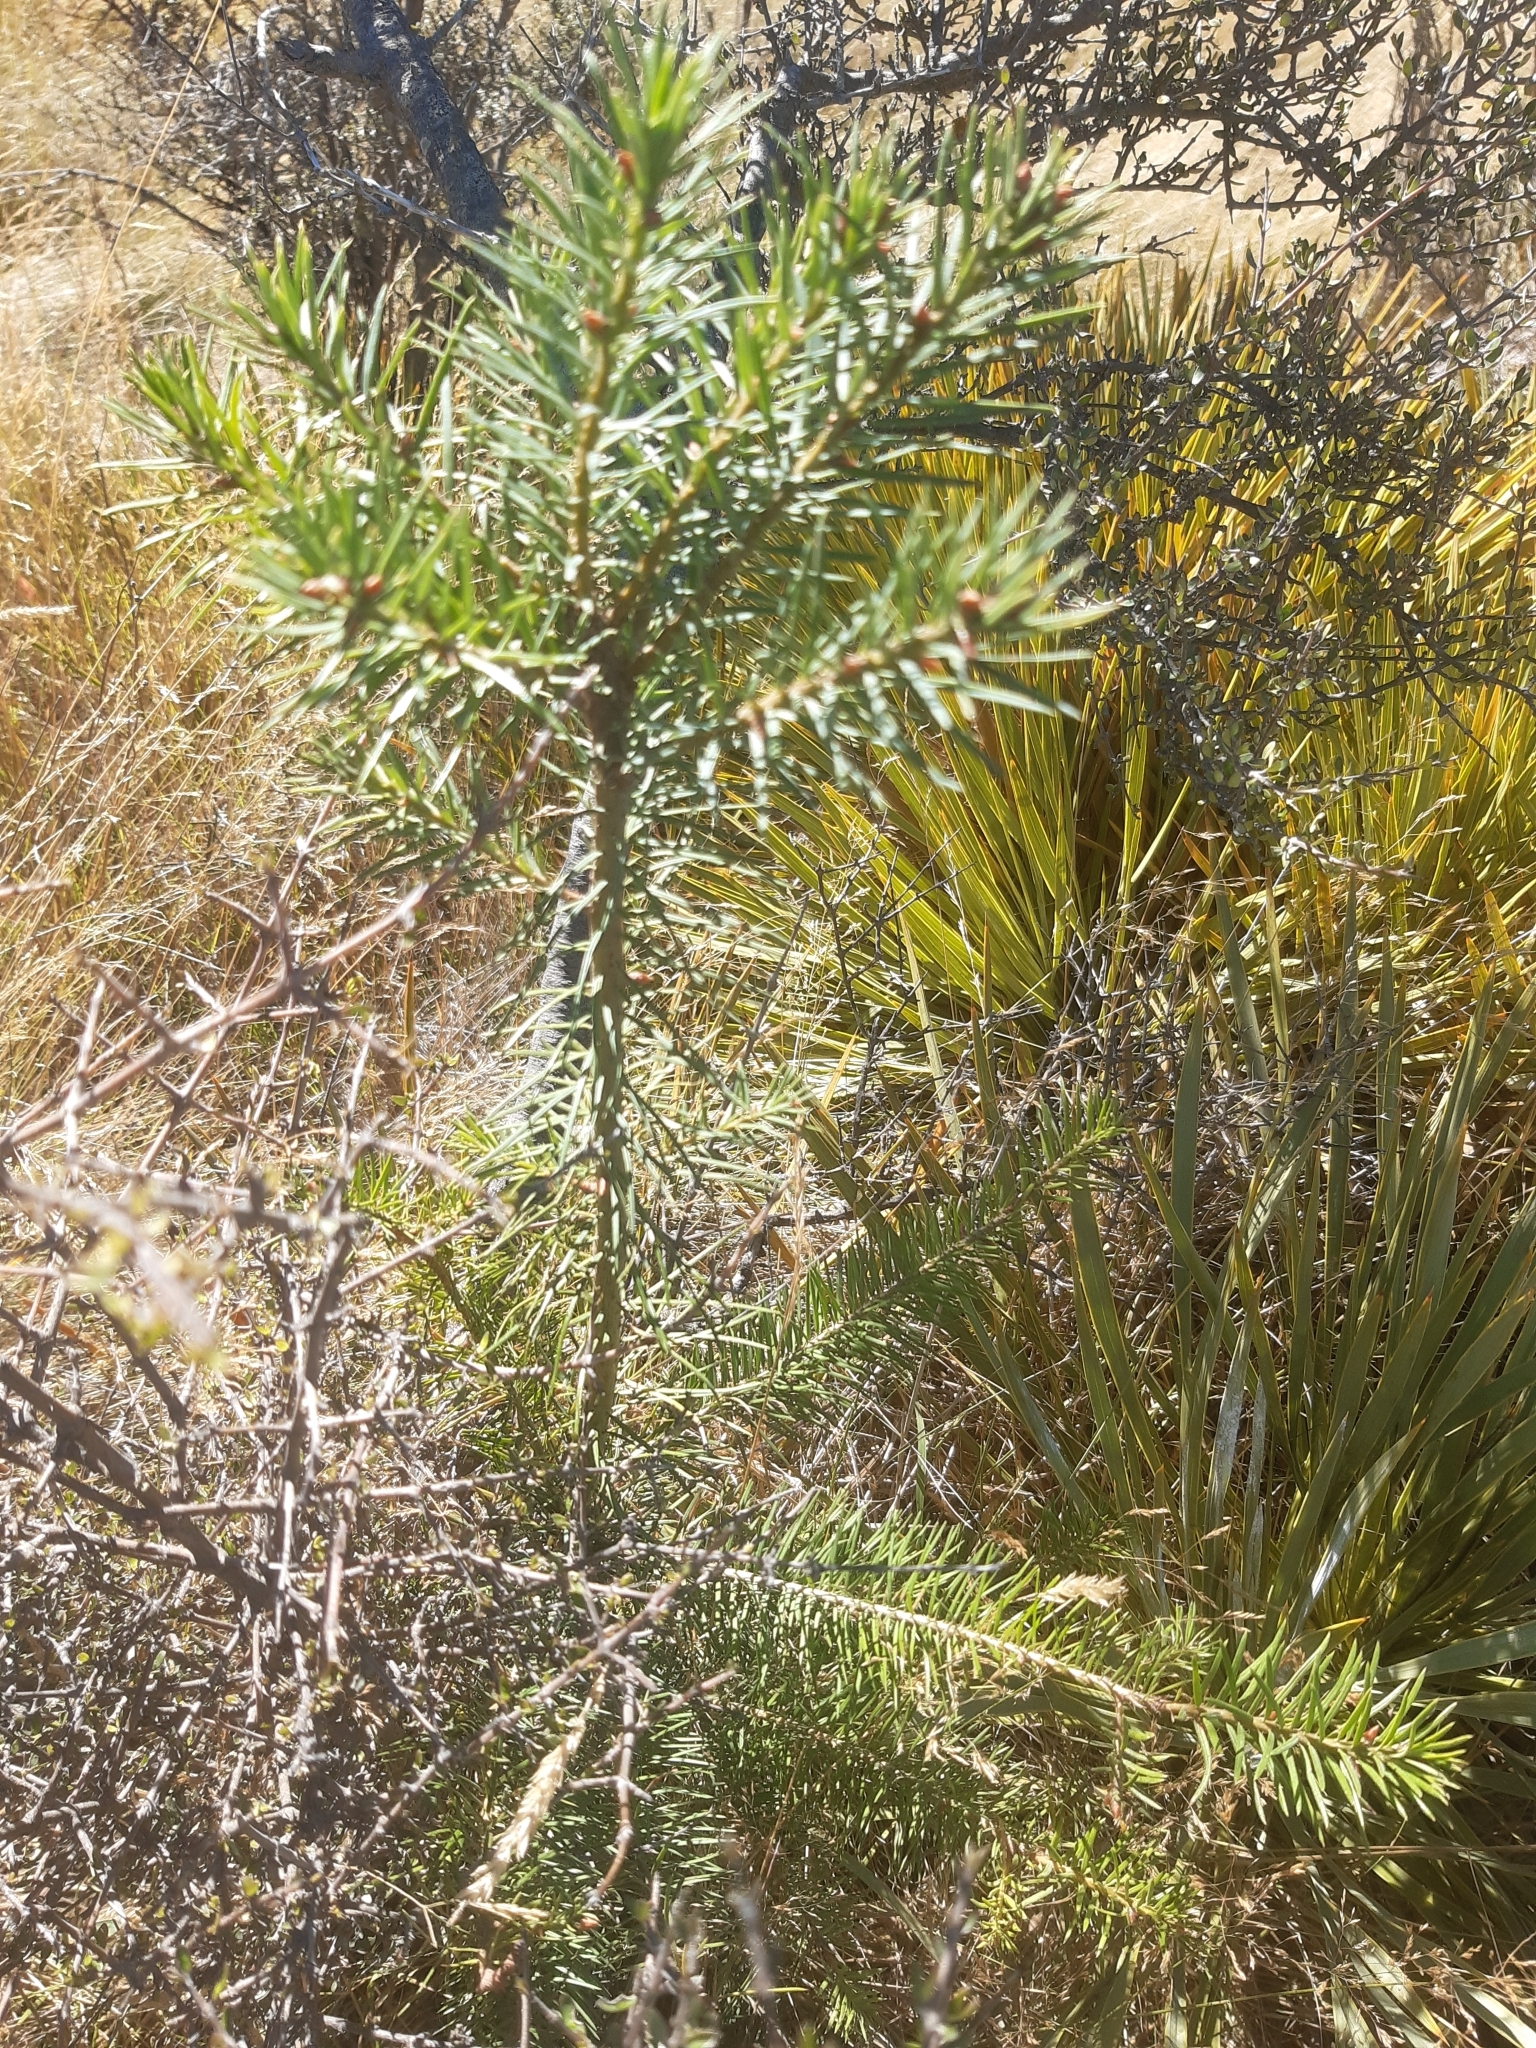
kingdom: Plantae
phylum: Tracheophyta
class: Pinopsida
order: Pinales
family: Pinaceae
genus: Pseudotsuga
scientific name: Pseudotsuga menziesii
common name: Douglas fir
